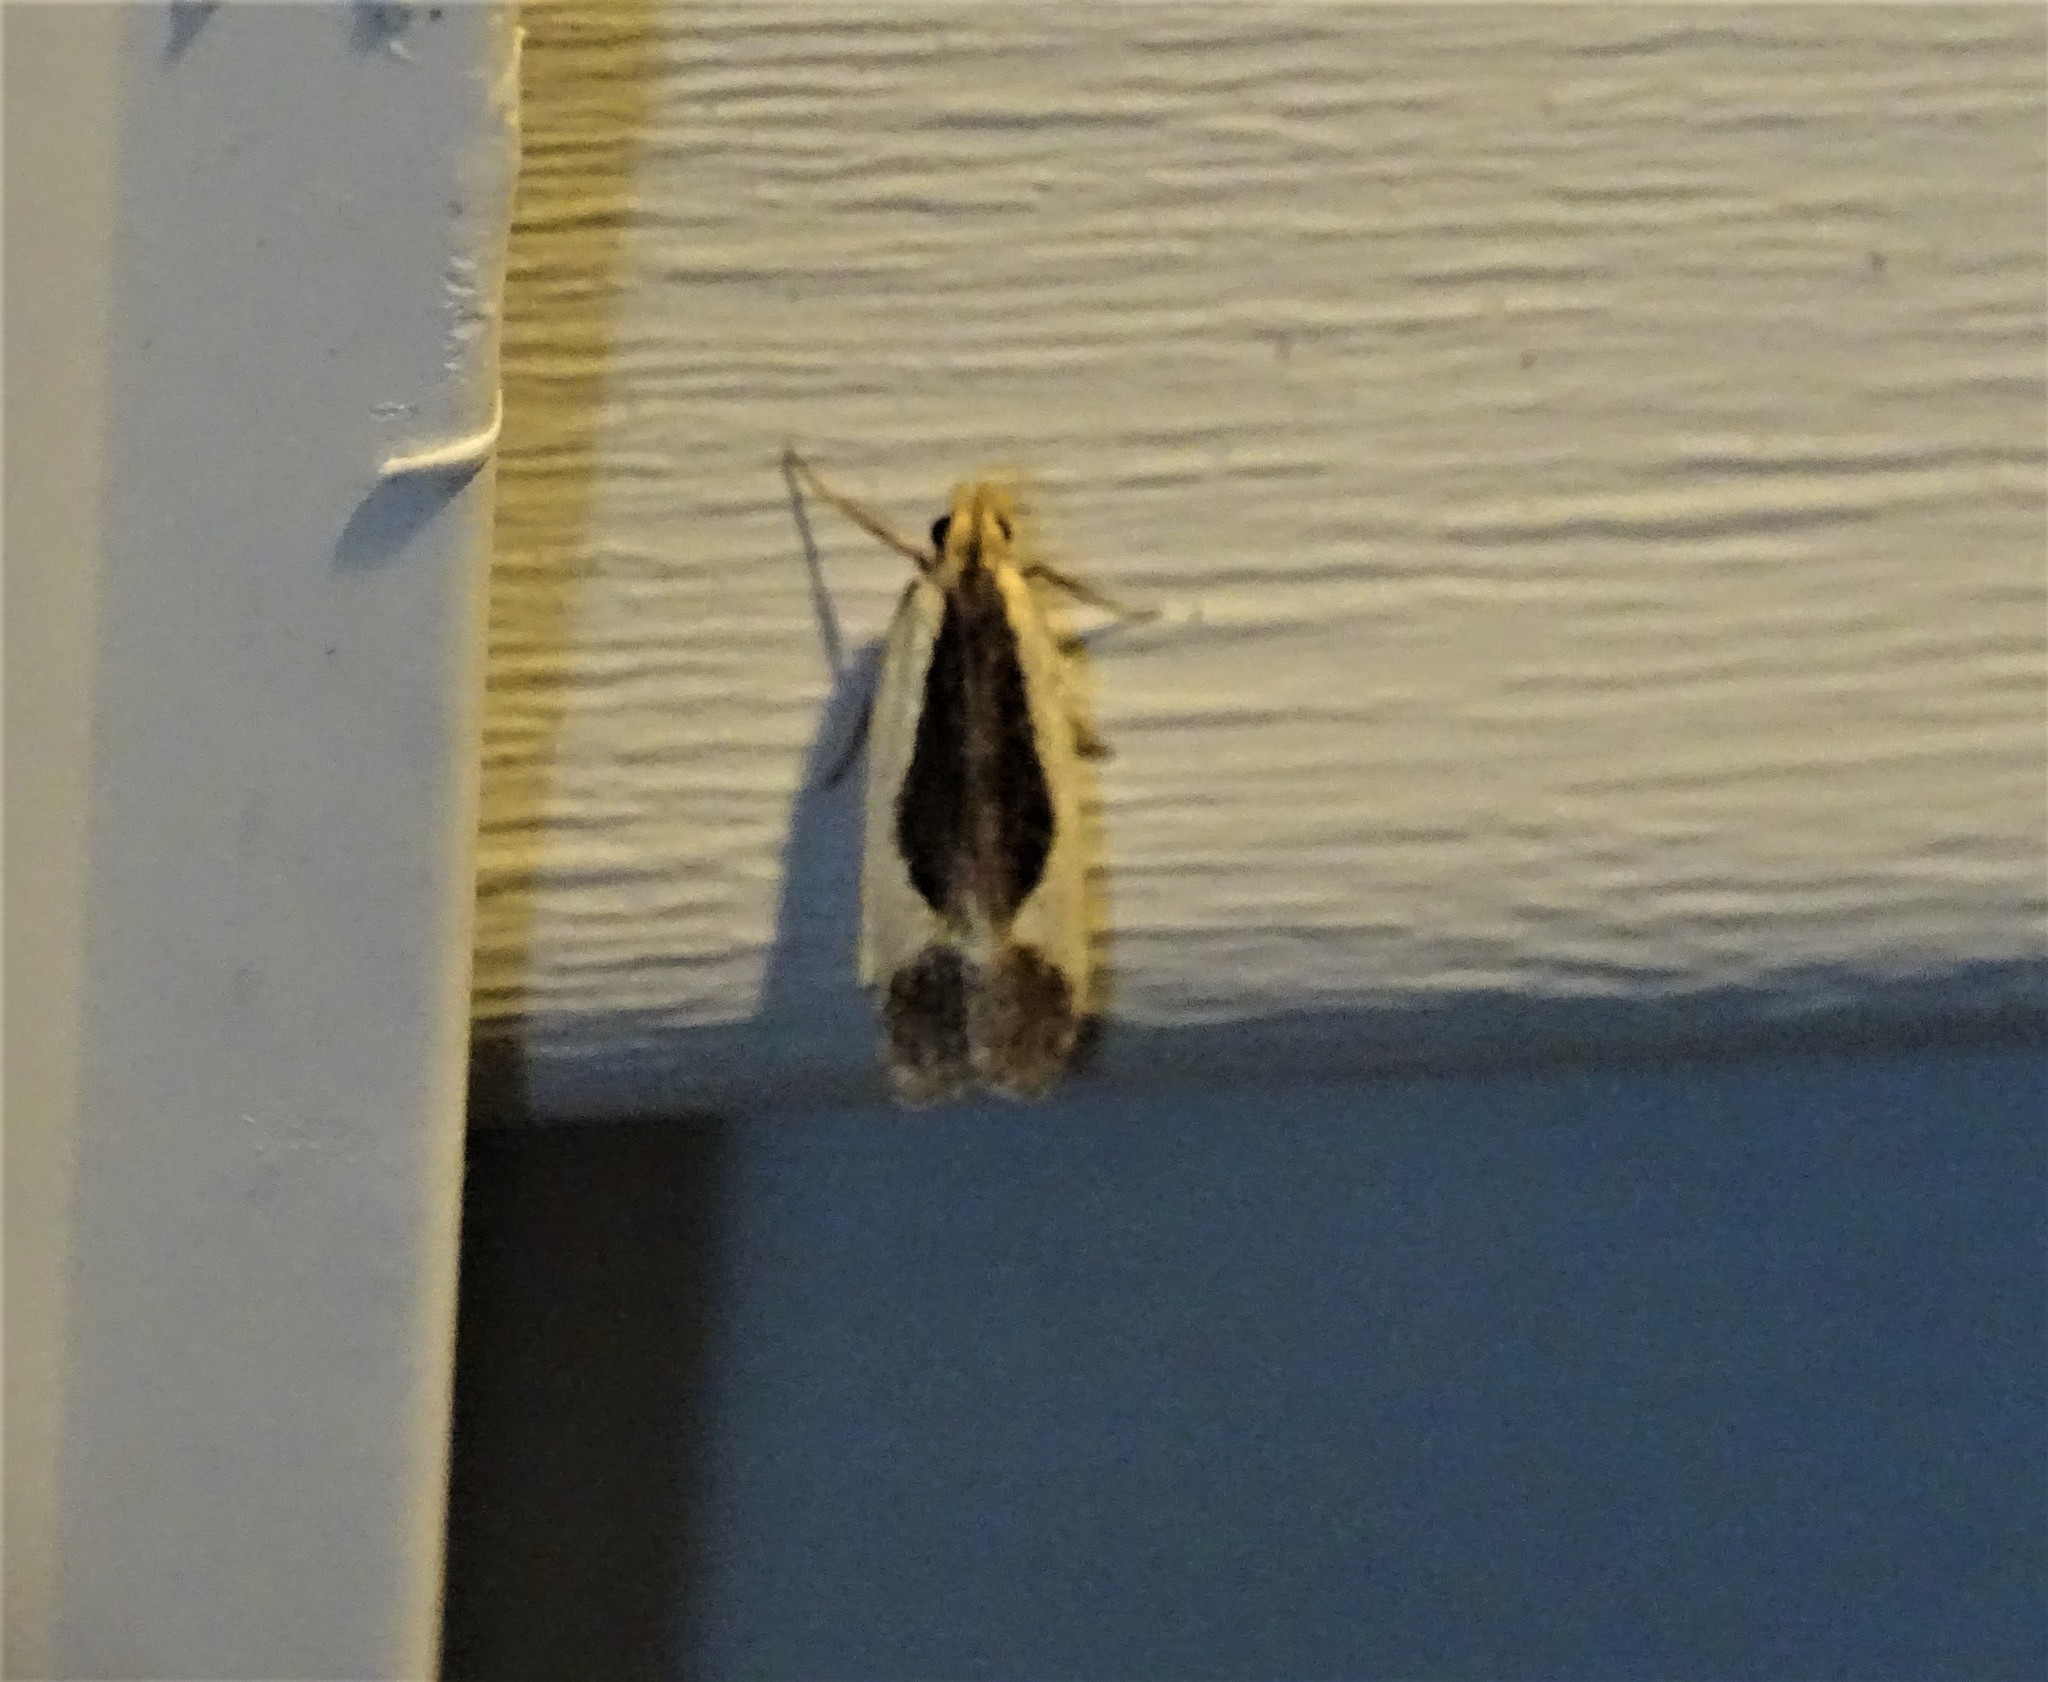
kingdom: Animalia
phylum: Arthropoda
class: Insecta
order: Lepidoptera
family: Gelechiidae
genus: Dichomeris
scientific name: Dichomeris flavocostella
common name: Cream-edged dichomeris moth
